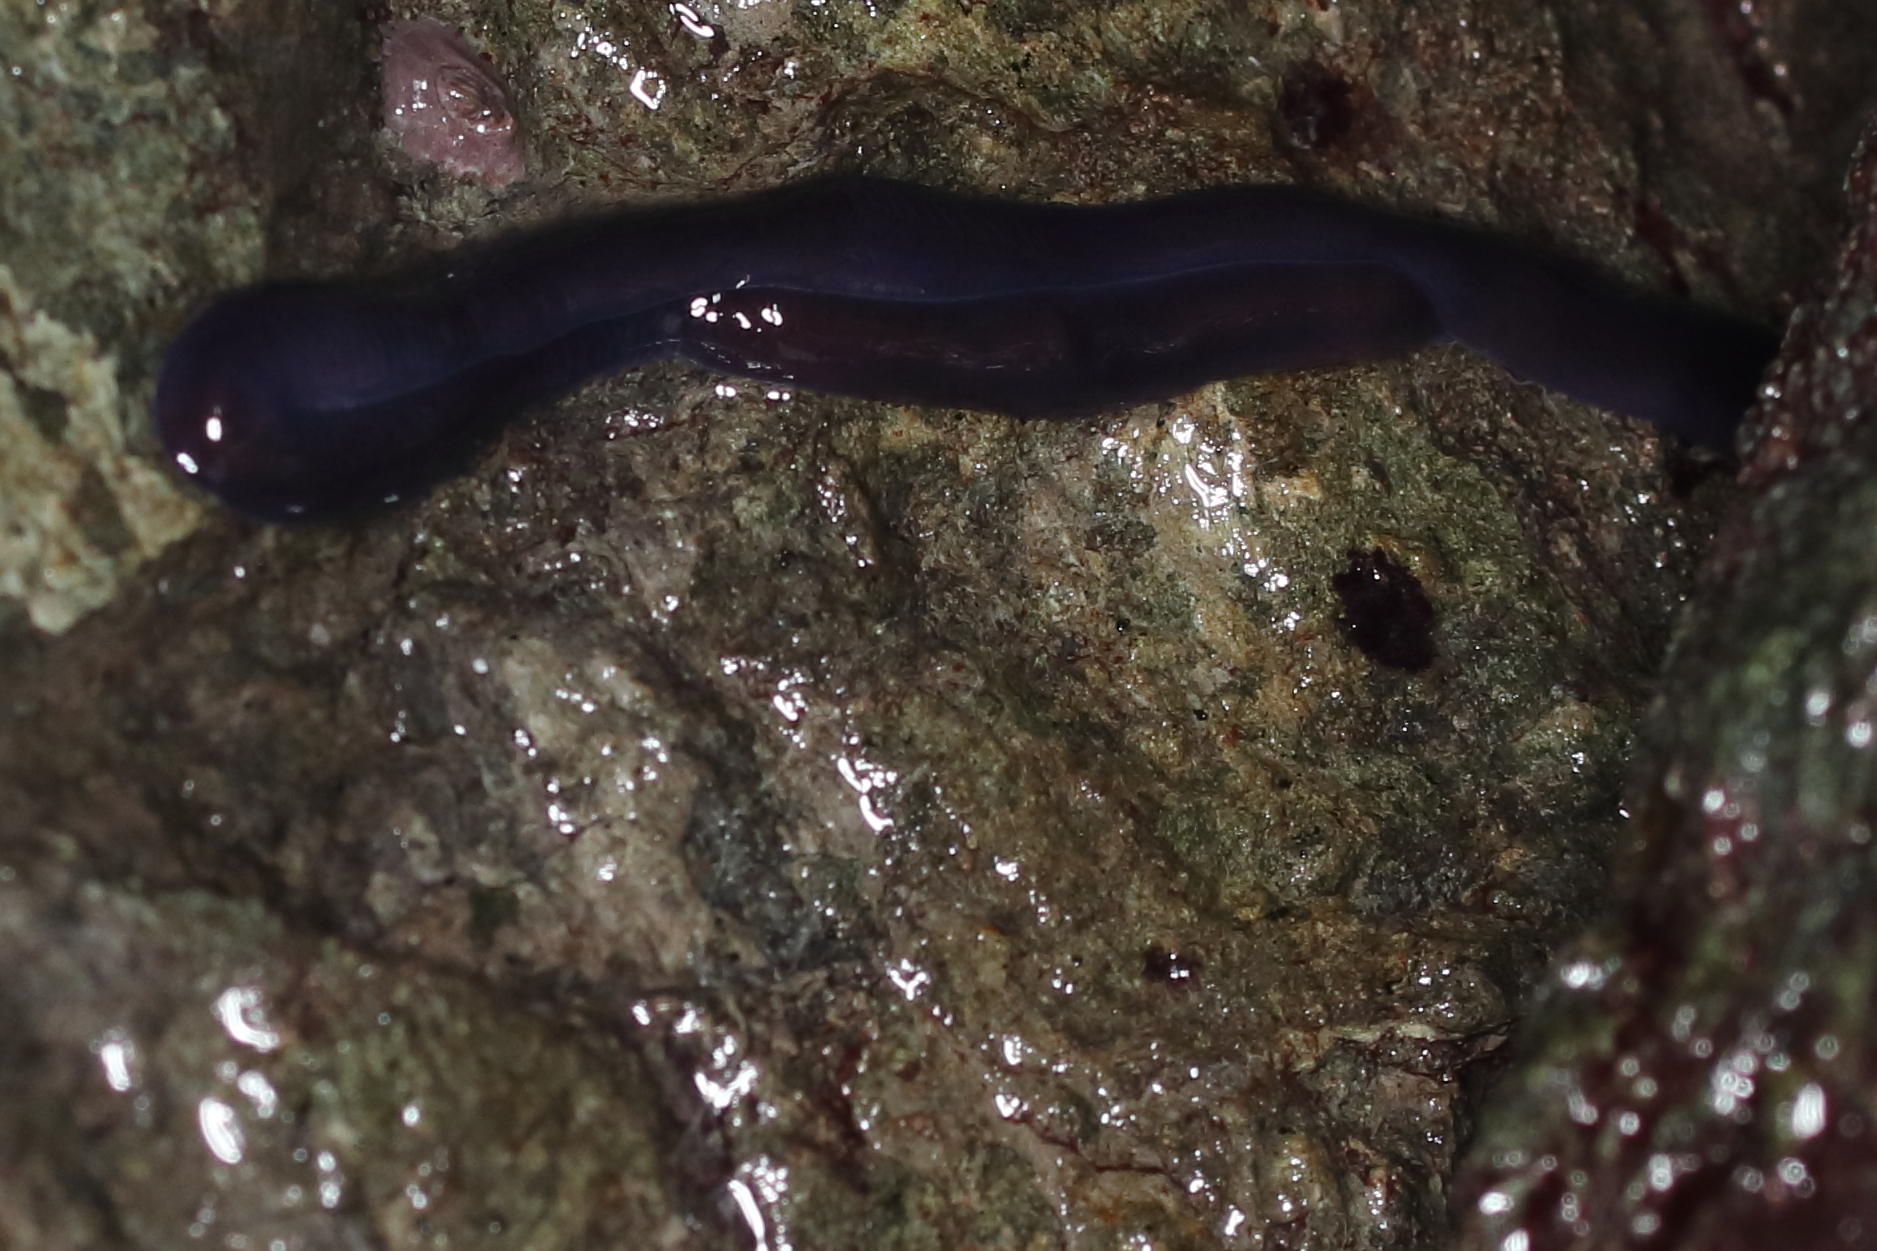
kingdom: Animalia
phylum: Nemertea
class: Hoplonemertea
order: Monostilifera
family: Neesiidae
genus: Paranemertes
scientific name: Paranemertes peregrina
